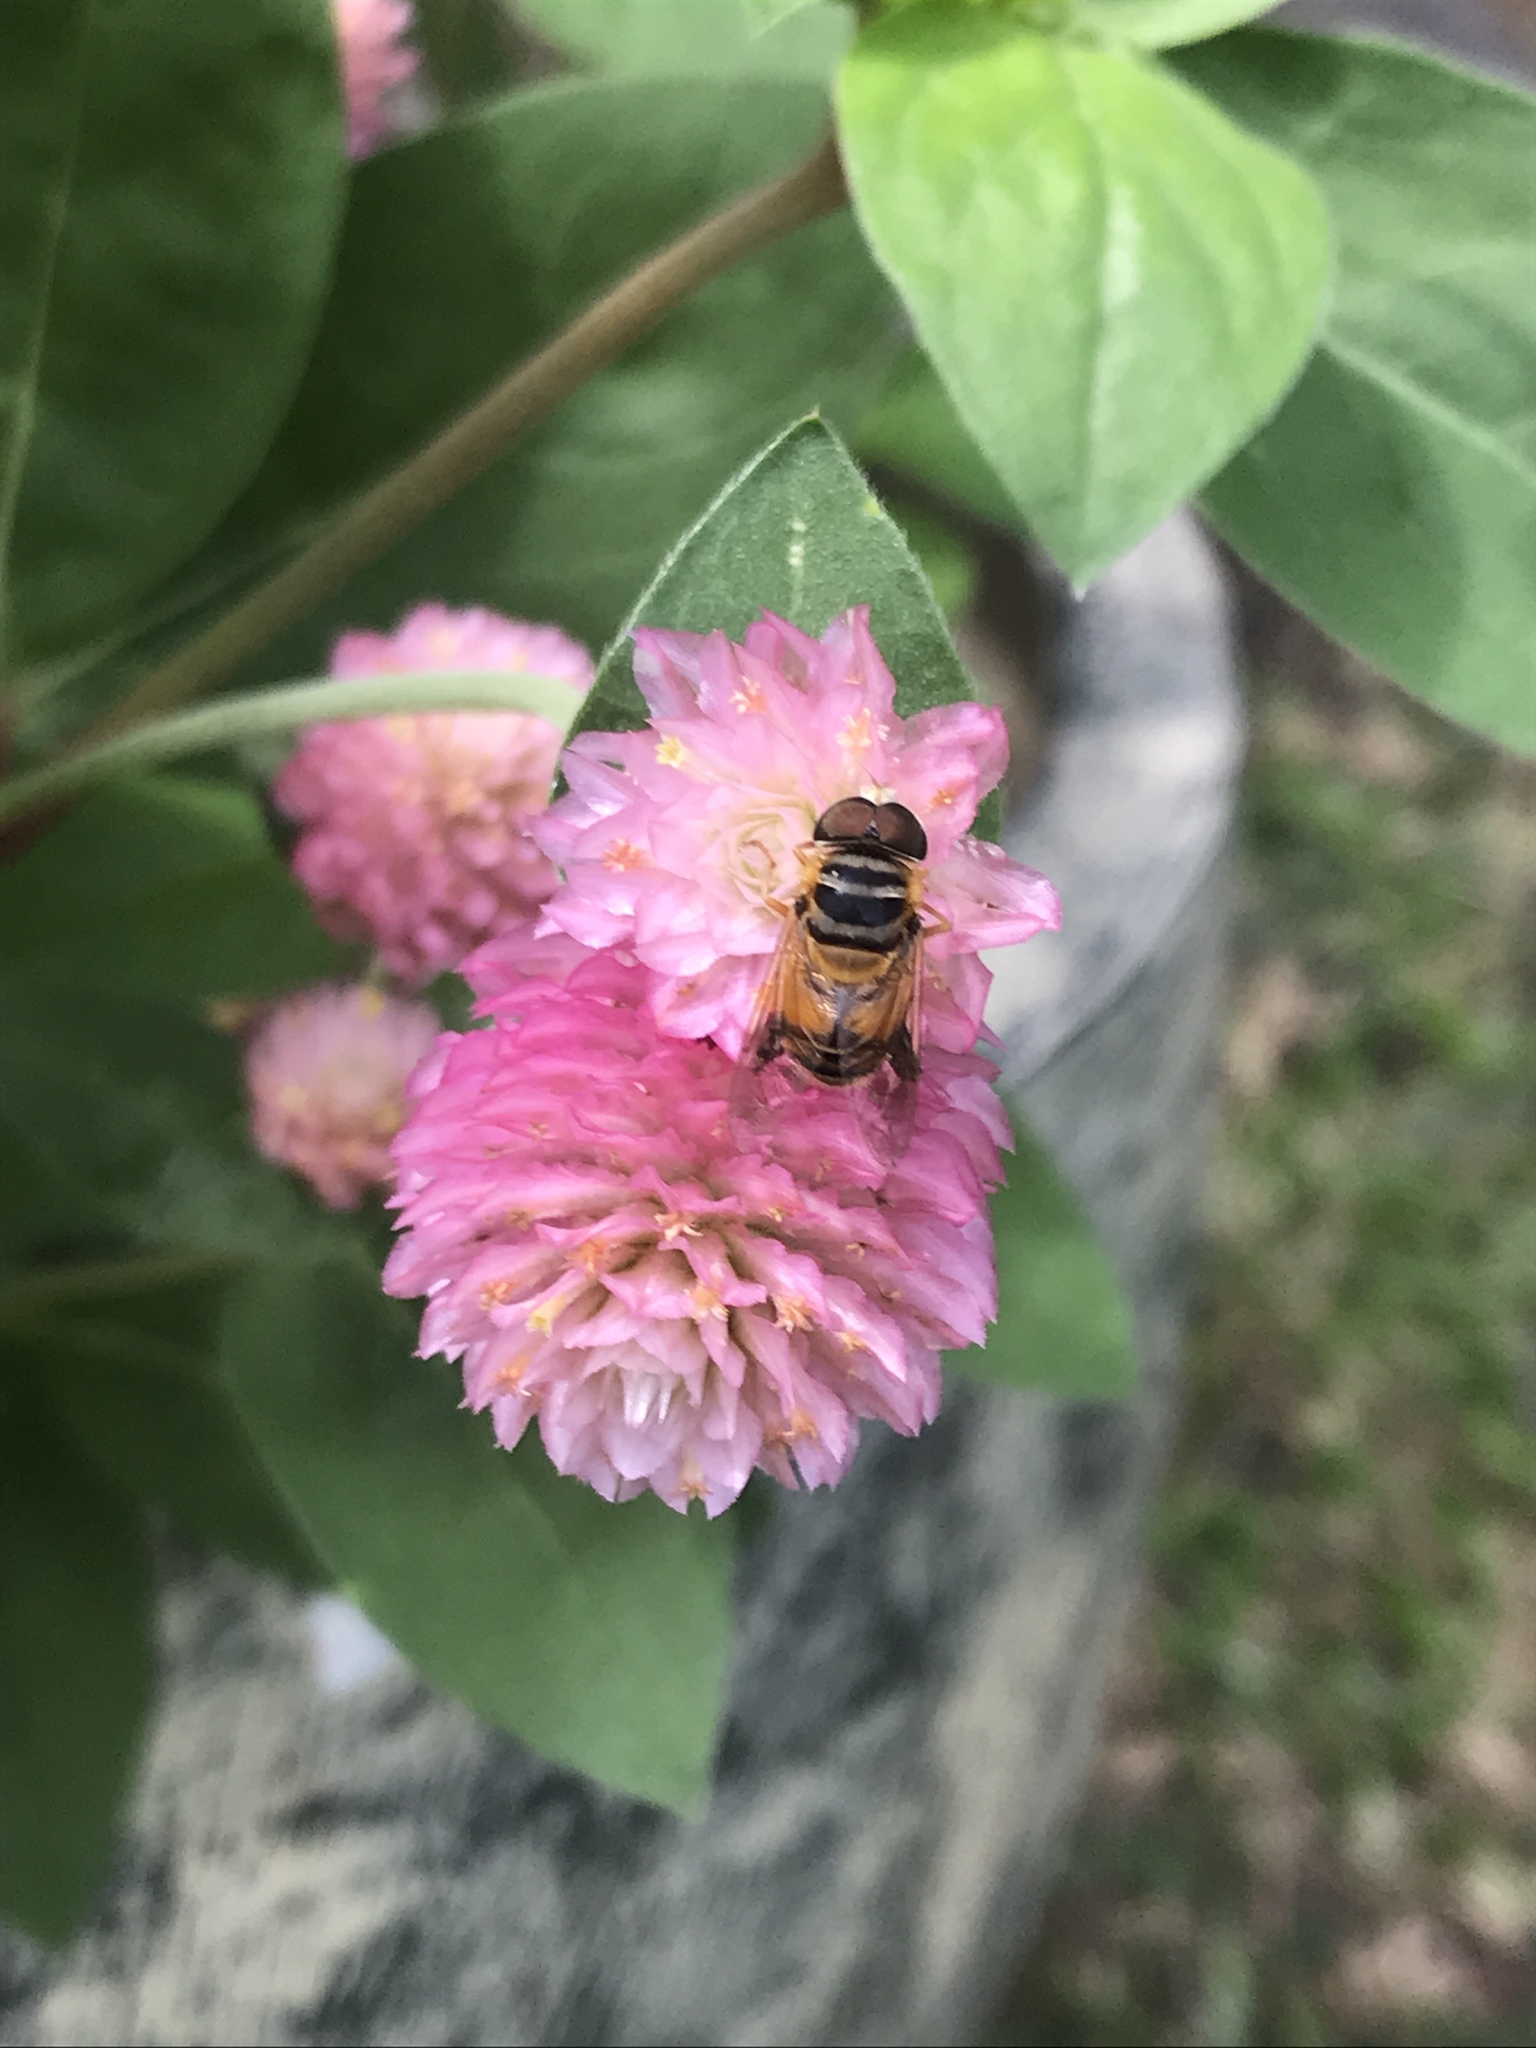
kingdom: Animalia
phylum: Arthropoda
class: Insecta
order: Diptera
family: Syrphidae
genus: Palpada
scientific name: Palpada vinetorum
